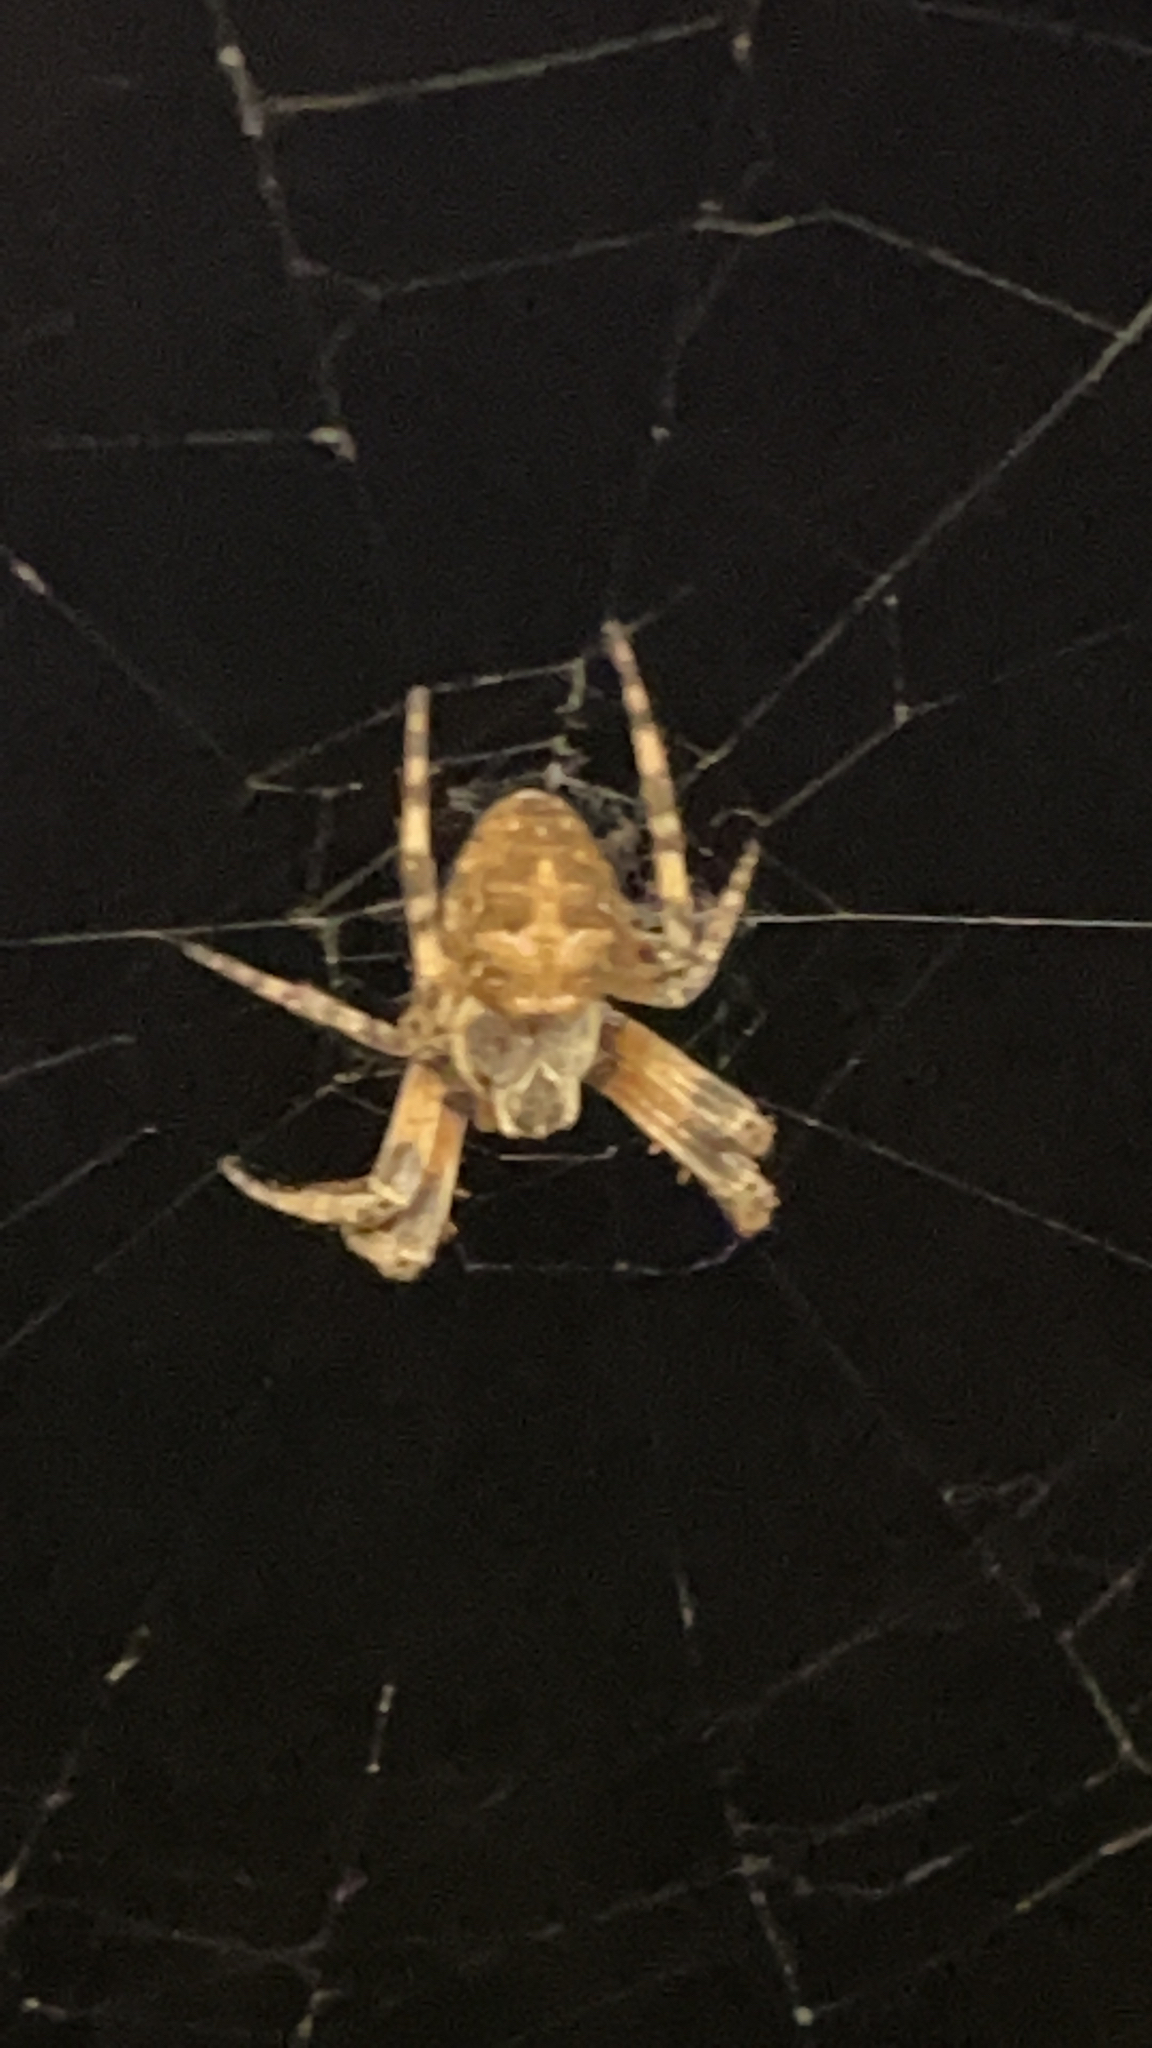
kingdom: Animalia
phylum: Arthropoda
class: Arachnida
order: Araneae
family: Araneidae
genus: Larinioides
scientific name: Larinioides sclopetarius
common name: Bridge orbweaver
